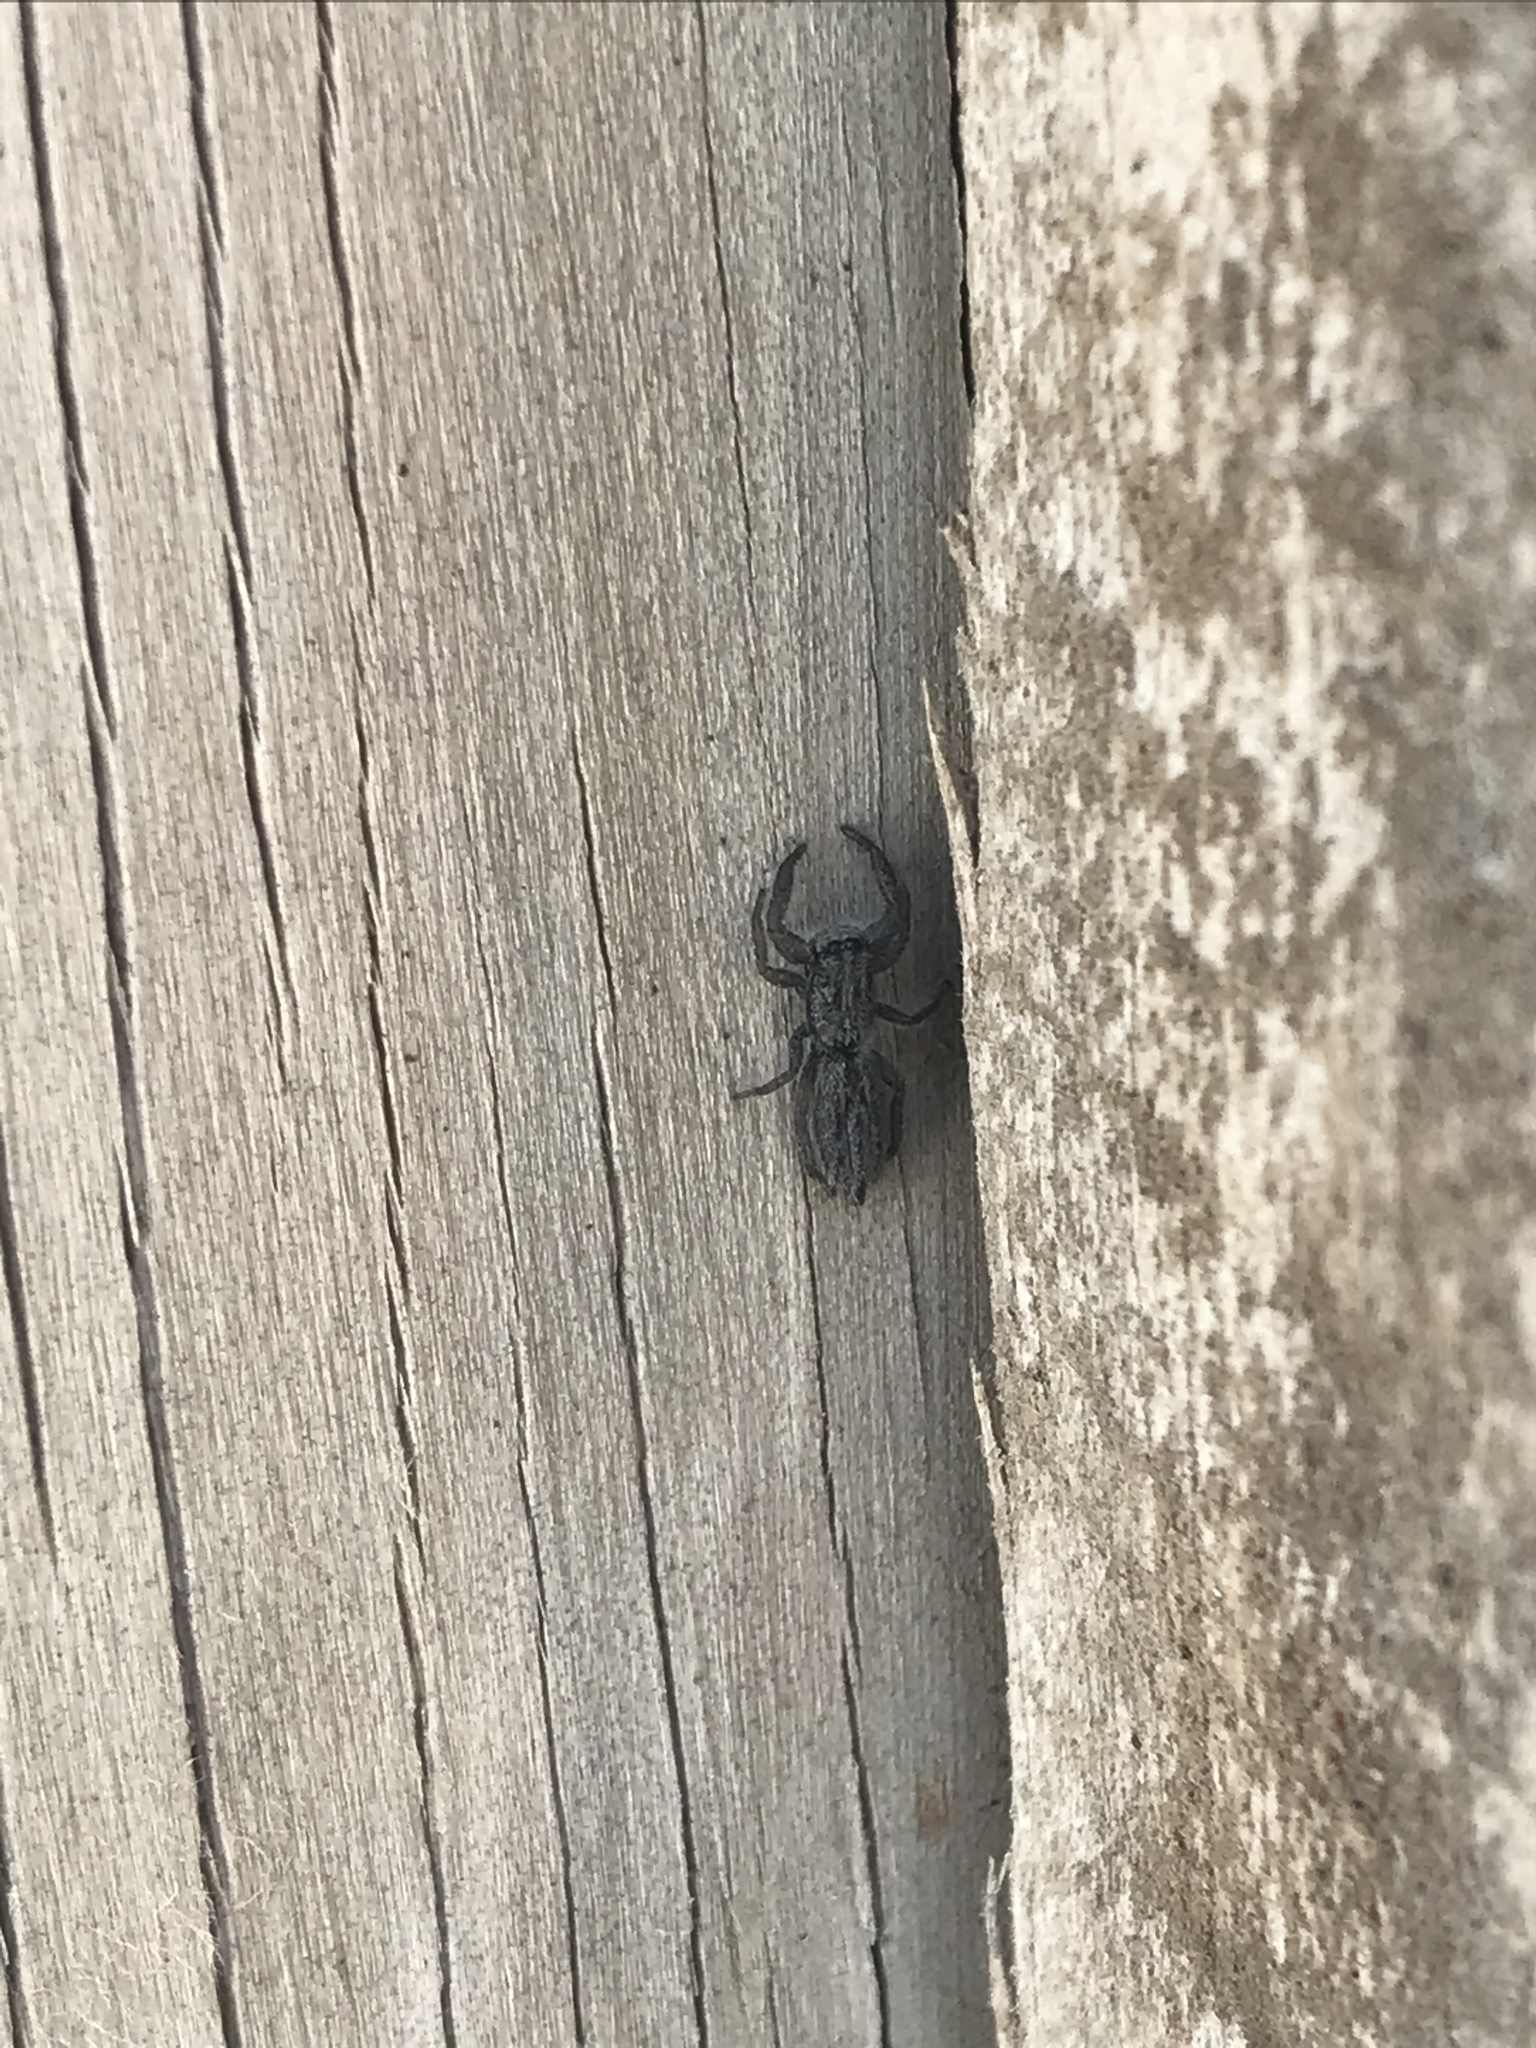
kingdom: Animalia
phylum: Arthropoda
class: Arachnida
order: Araneae
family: Salticidae
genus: Holoplatys
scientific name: Holoplatys apressus
